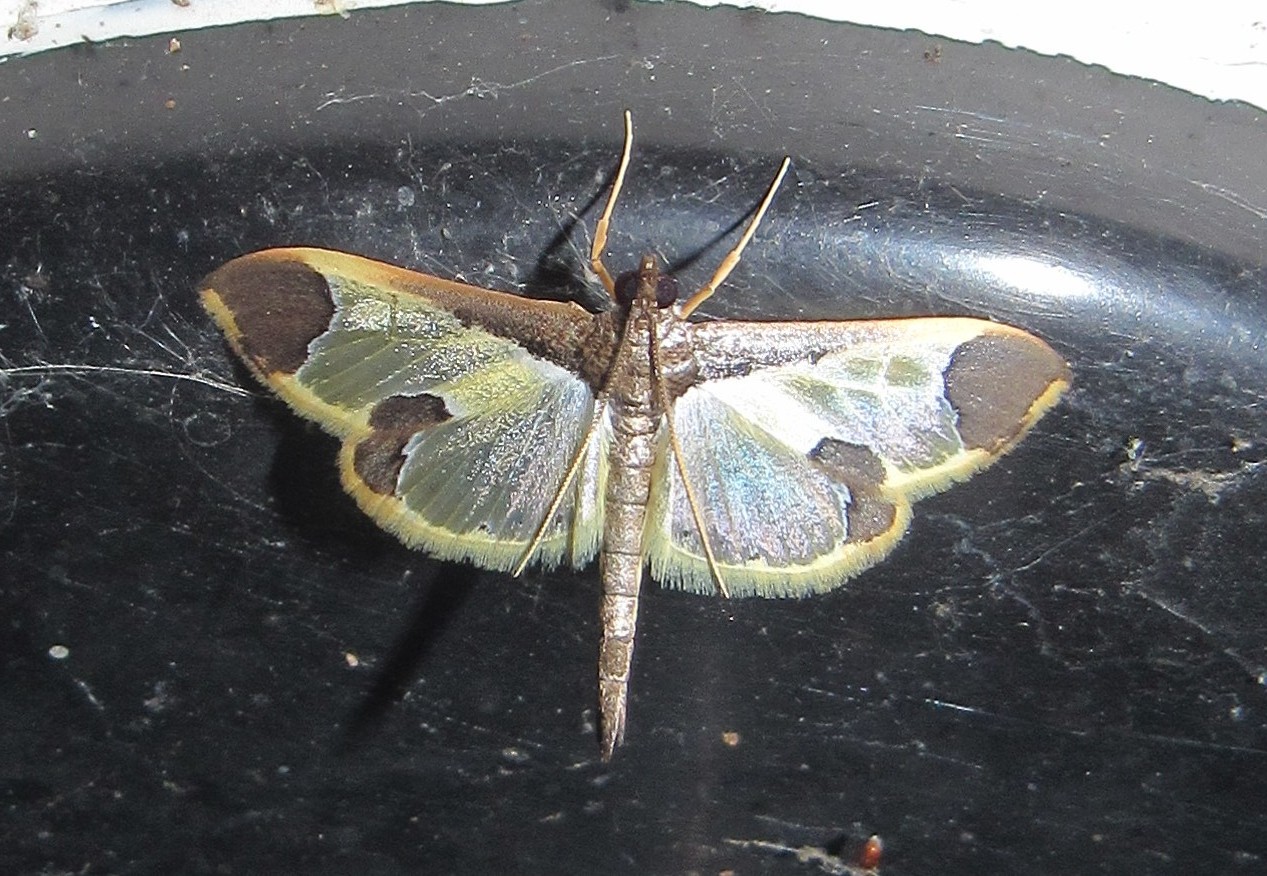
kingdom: Animalia
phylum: Arthropoda
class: Insecta
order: Lepidoptera
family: Crambidae
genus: Syllepis
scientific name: Syllepis marialis
